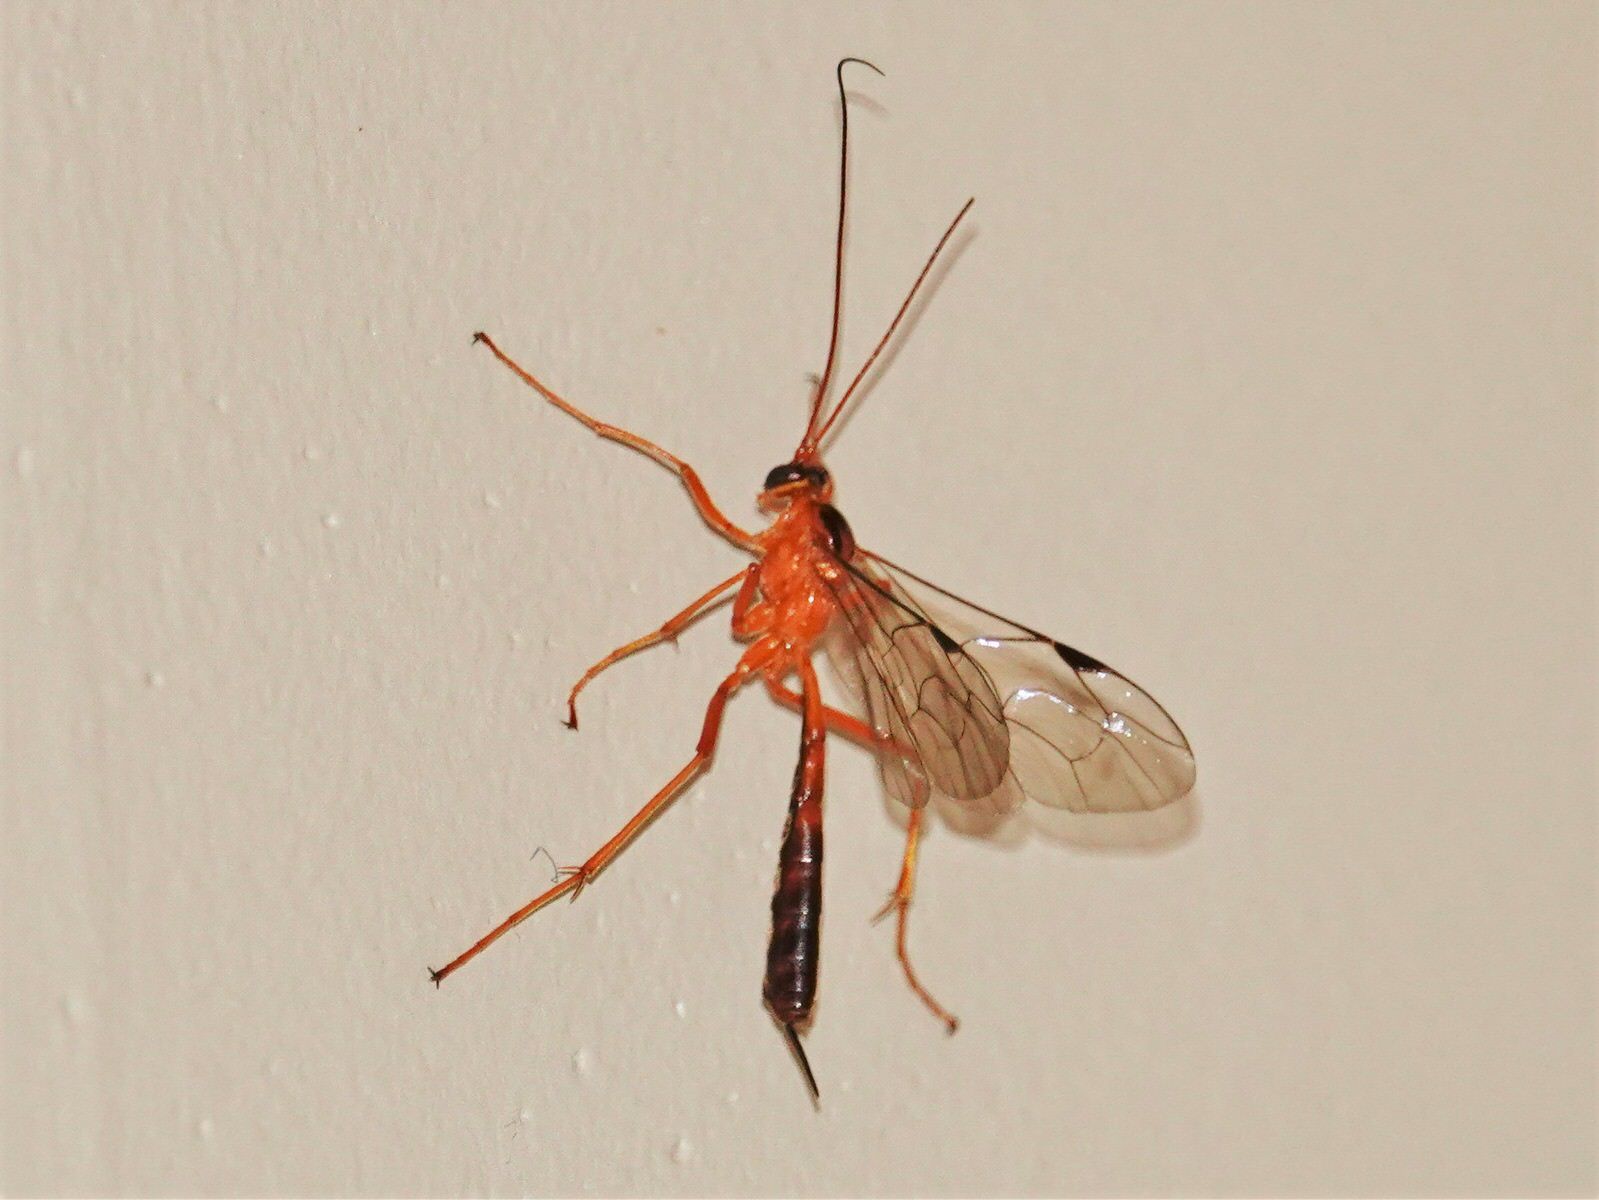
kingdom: Animalia
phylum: Arthropoda
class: Insecta
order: Hymenoptera
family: Ichneumonidae
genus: Netelia
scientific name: Netelia ephippiata
